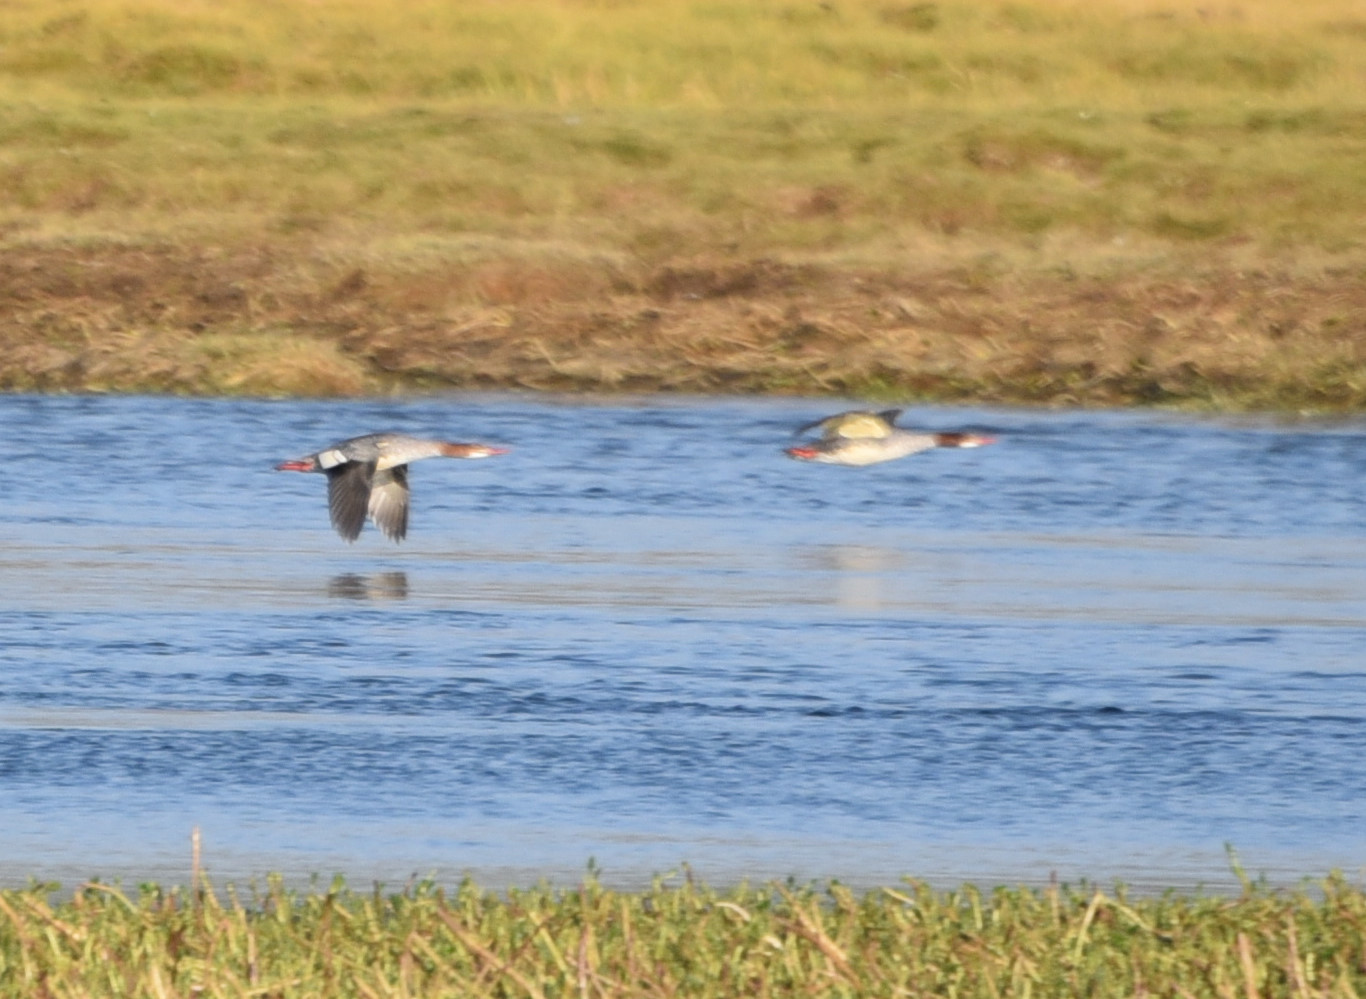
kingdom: Animalia
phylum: Chordata
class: Aves
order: Anseriformes
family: Anatidae
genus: Mergus
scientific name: Mergus merganser
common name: Common merganser
